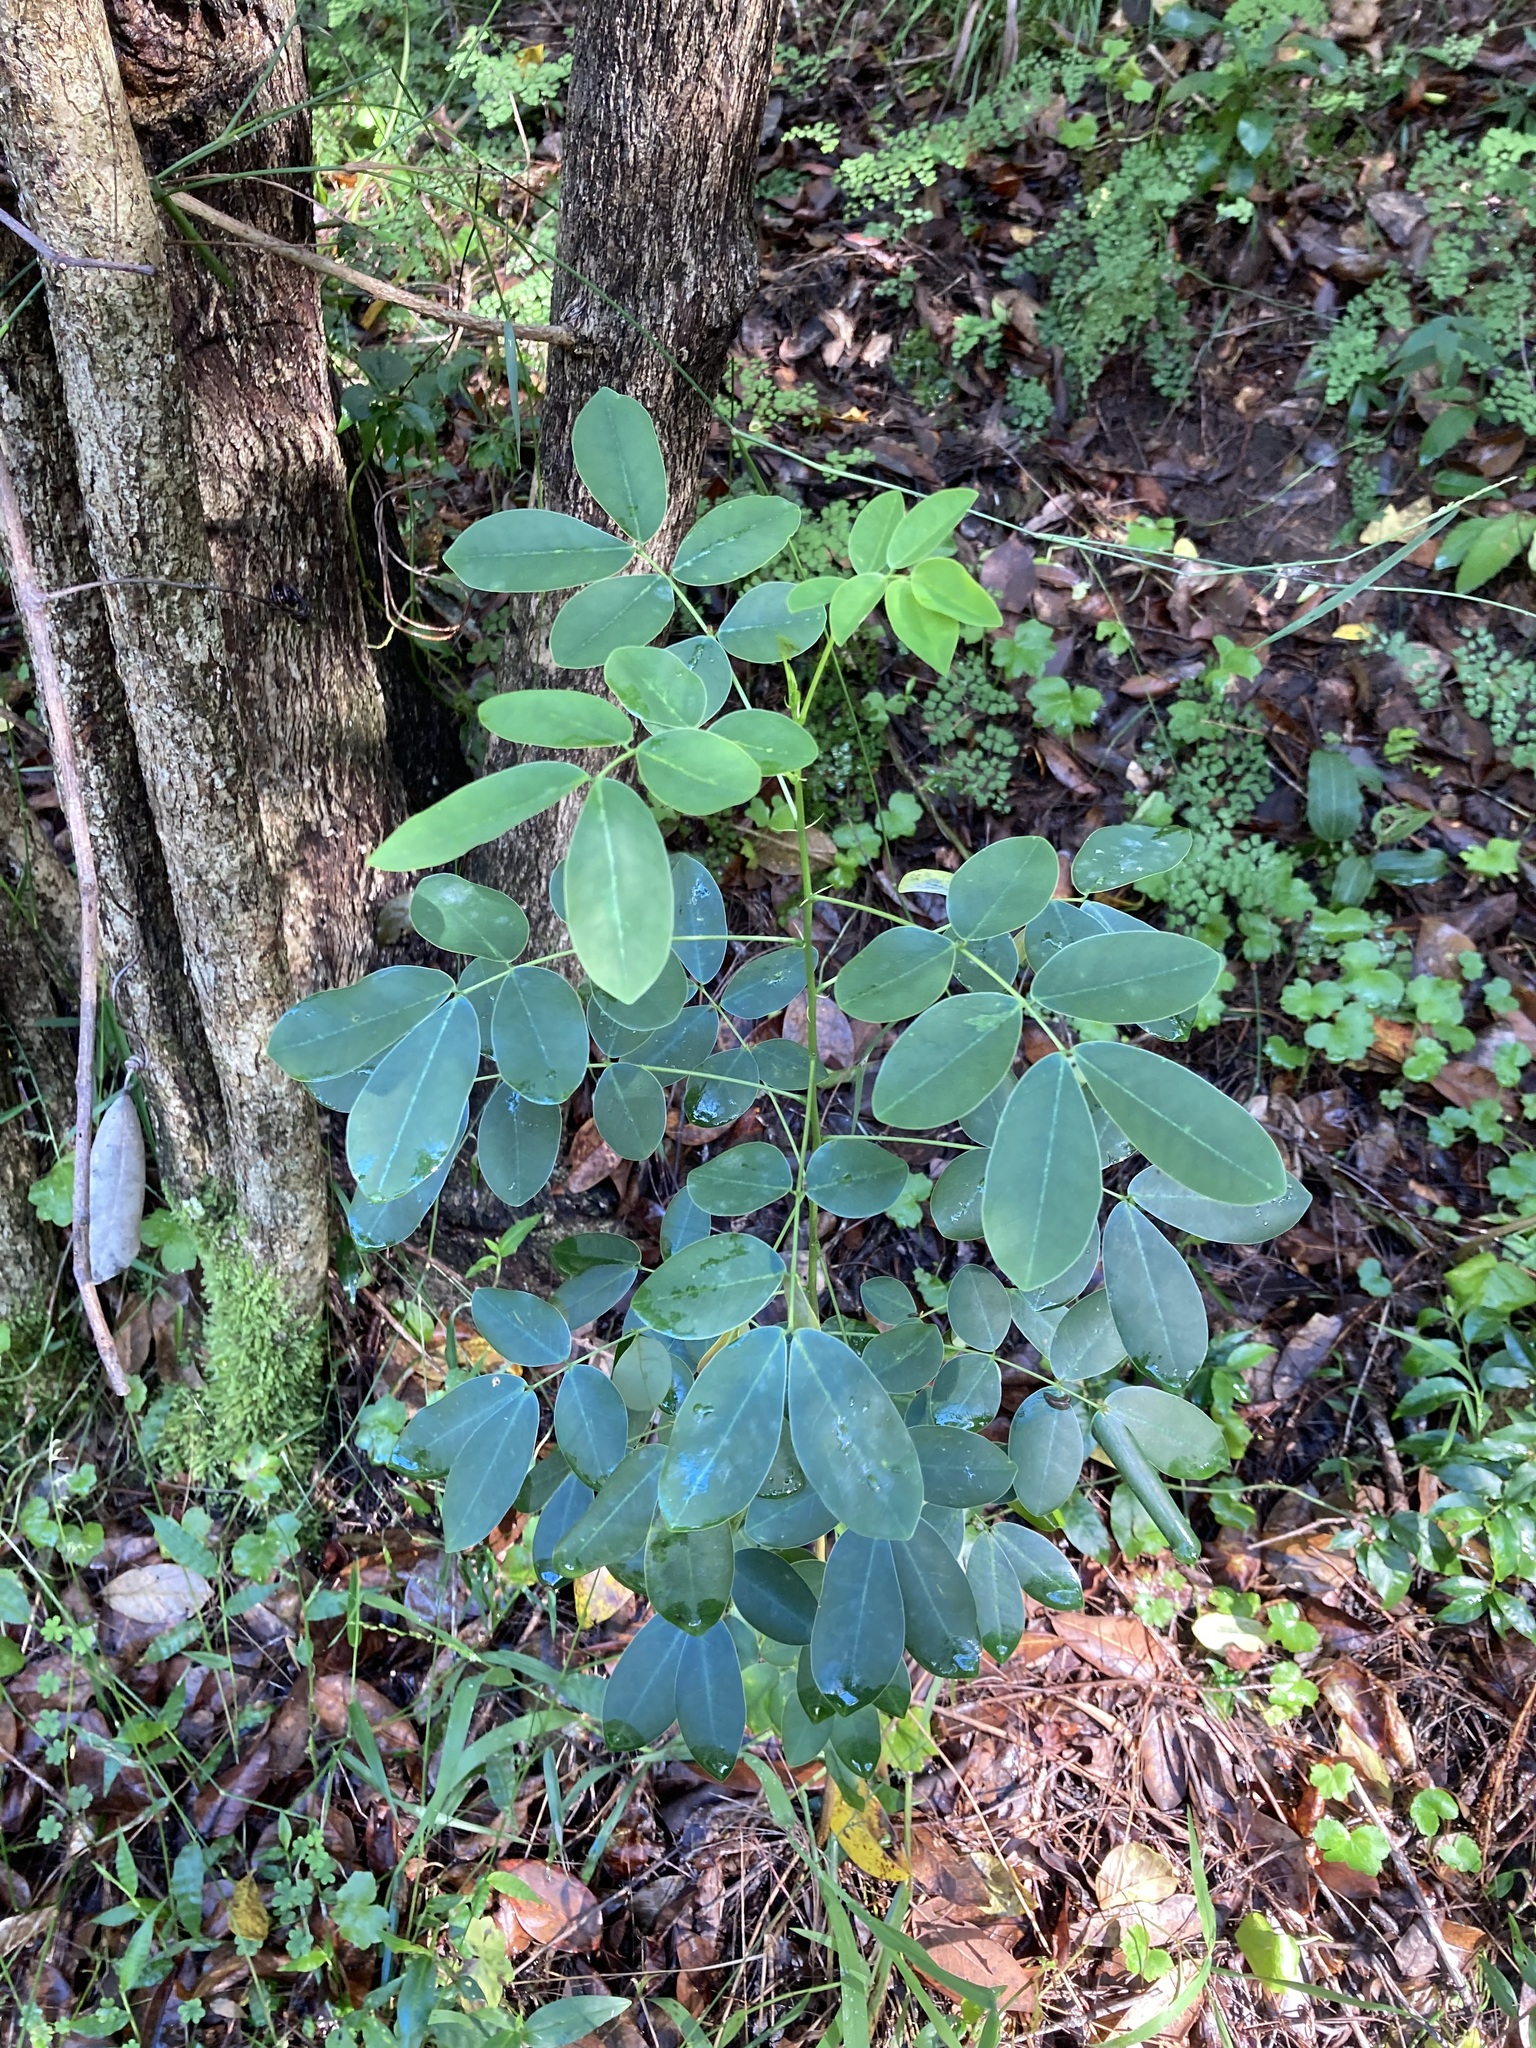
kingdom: Plantae
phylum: Tracheophyta
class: Magnoliopsida
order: Fabales
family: Fabaceae
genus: Senna
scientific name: Senna pendula
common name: Easter cassia
